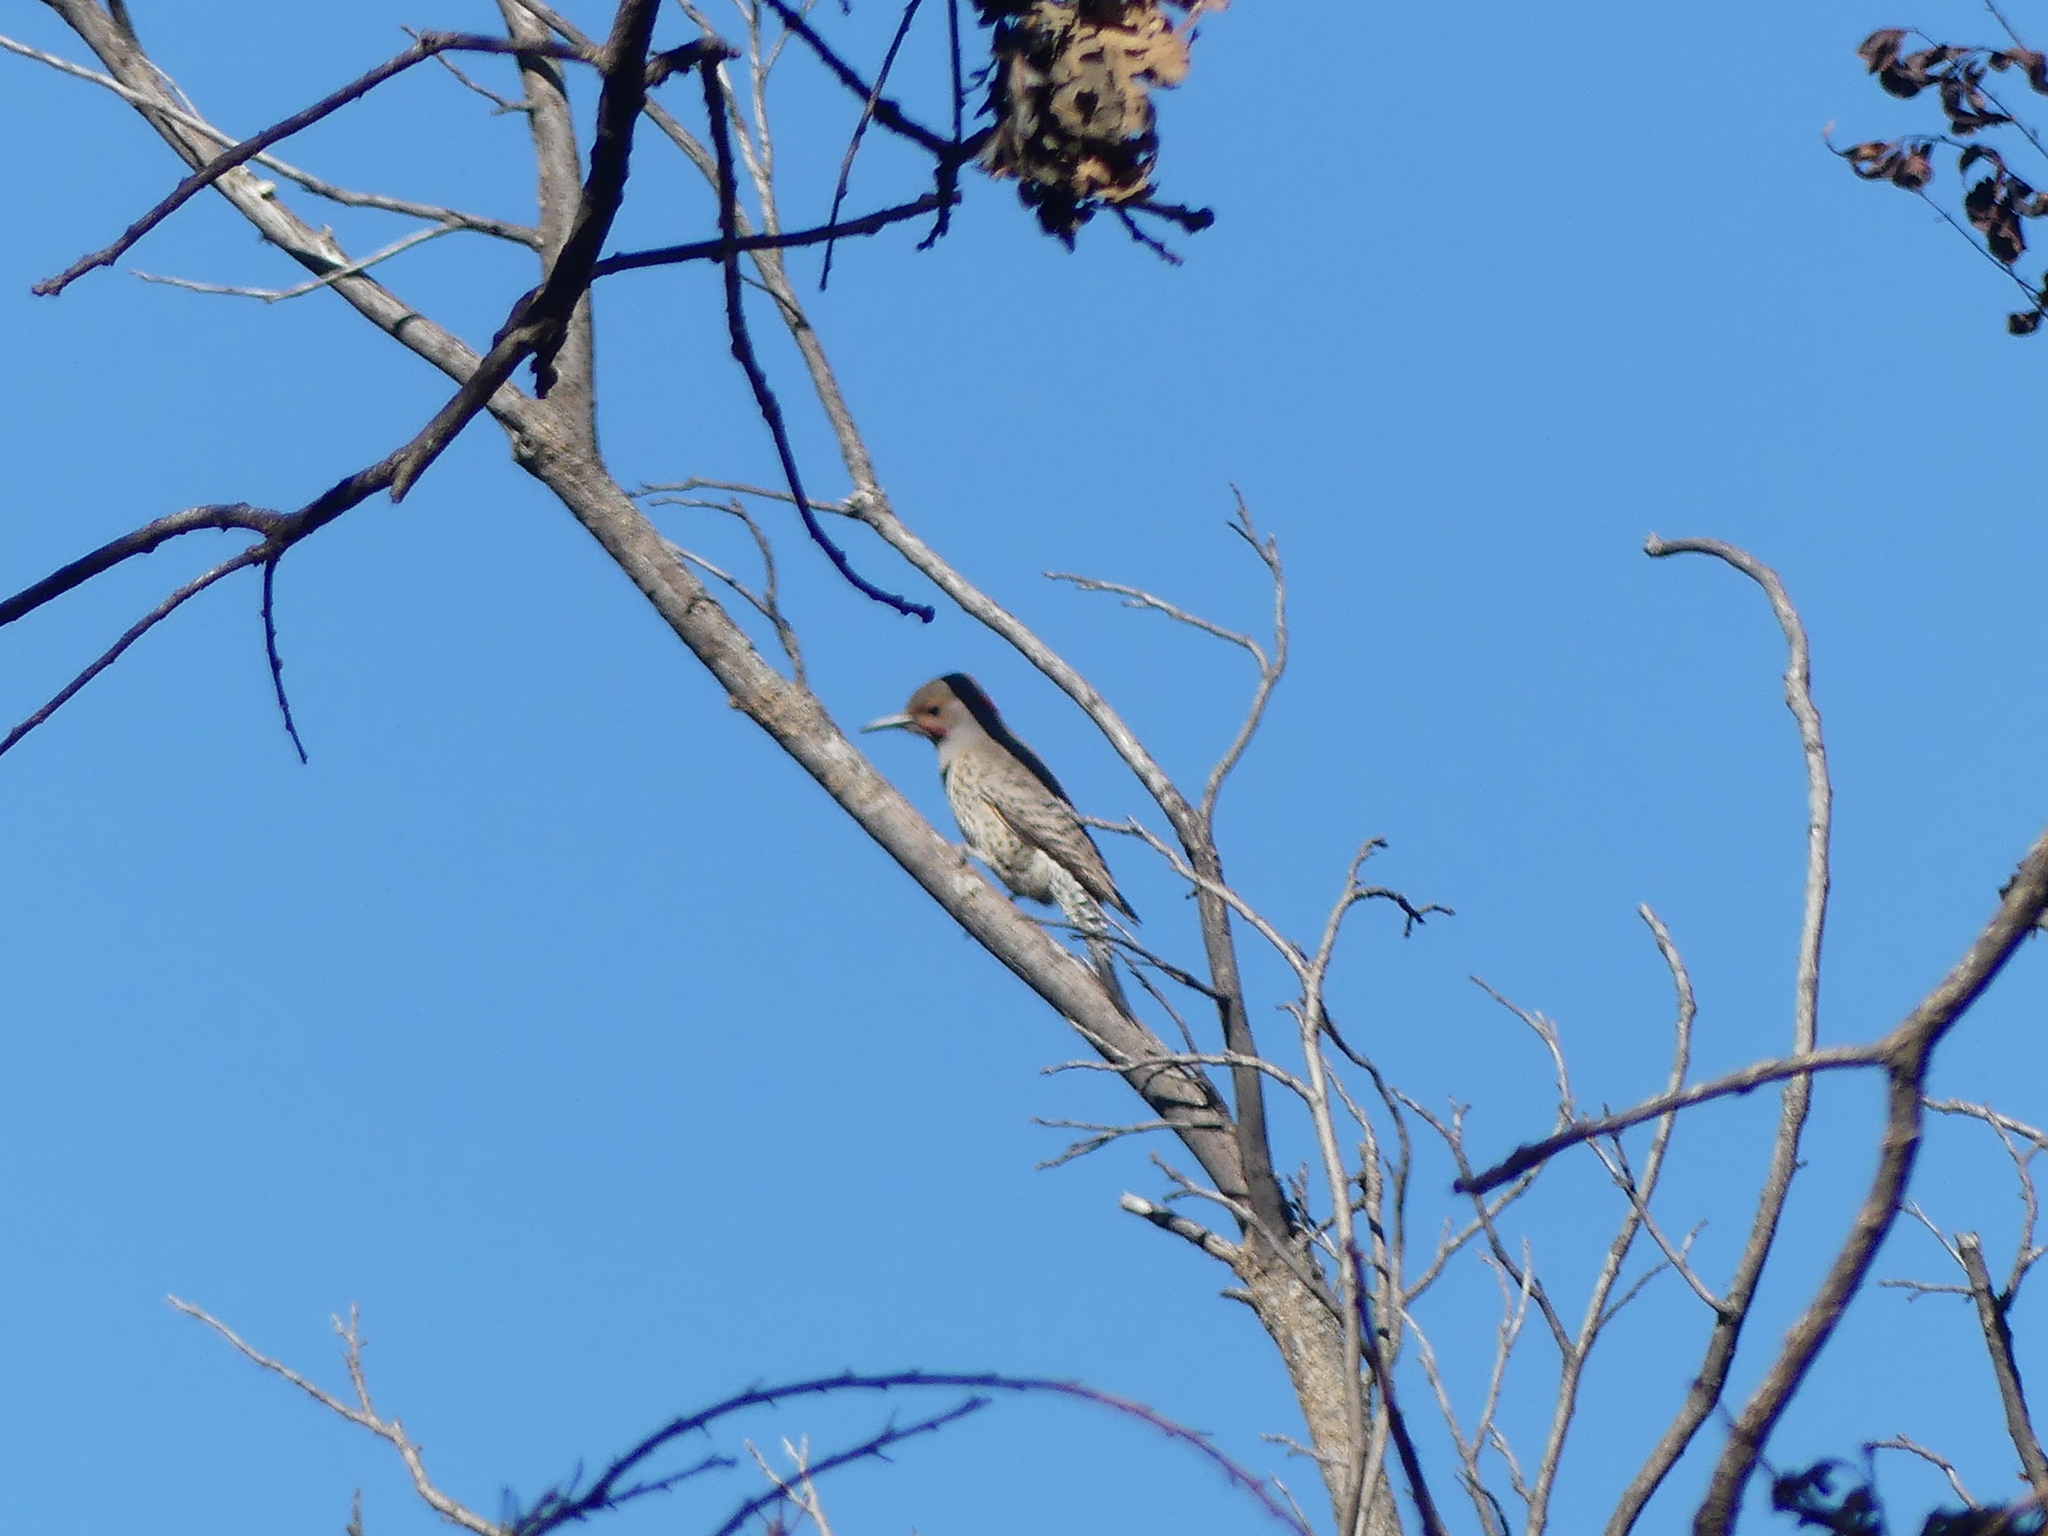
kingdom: Animalia
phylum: Chordata
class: Aves
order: Piciformes
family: Picidae
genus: Colaptes
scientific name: Colaptes auratus
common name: Northern flicker
